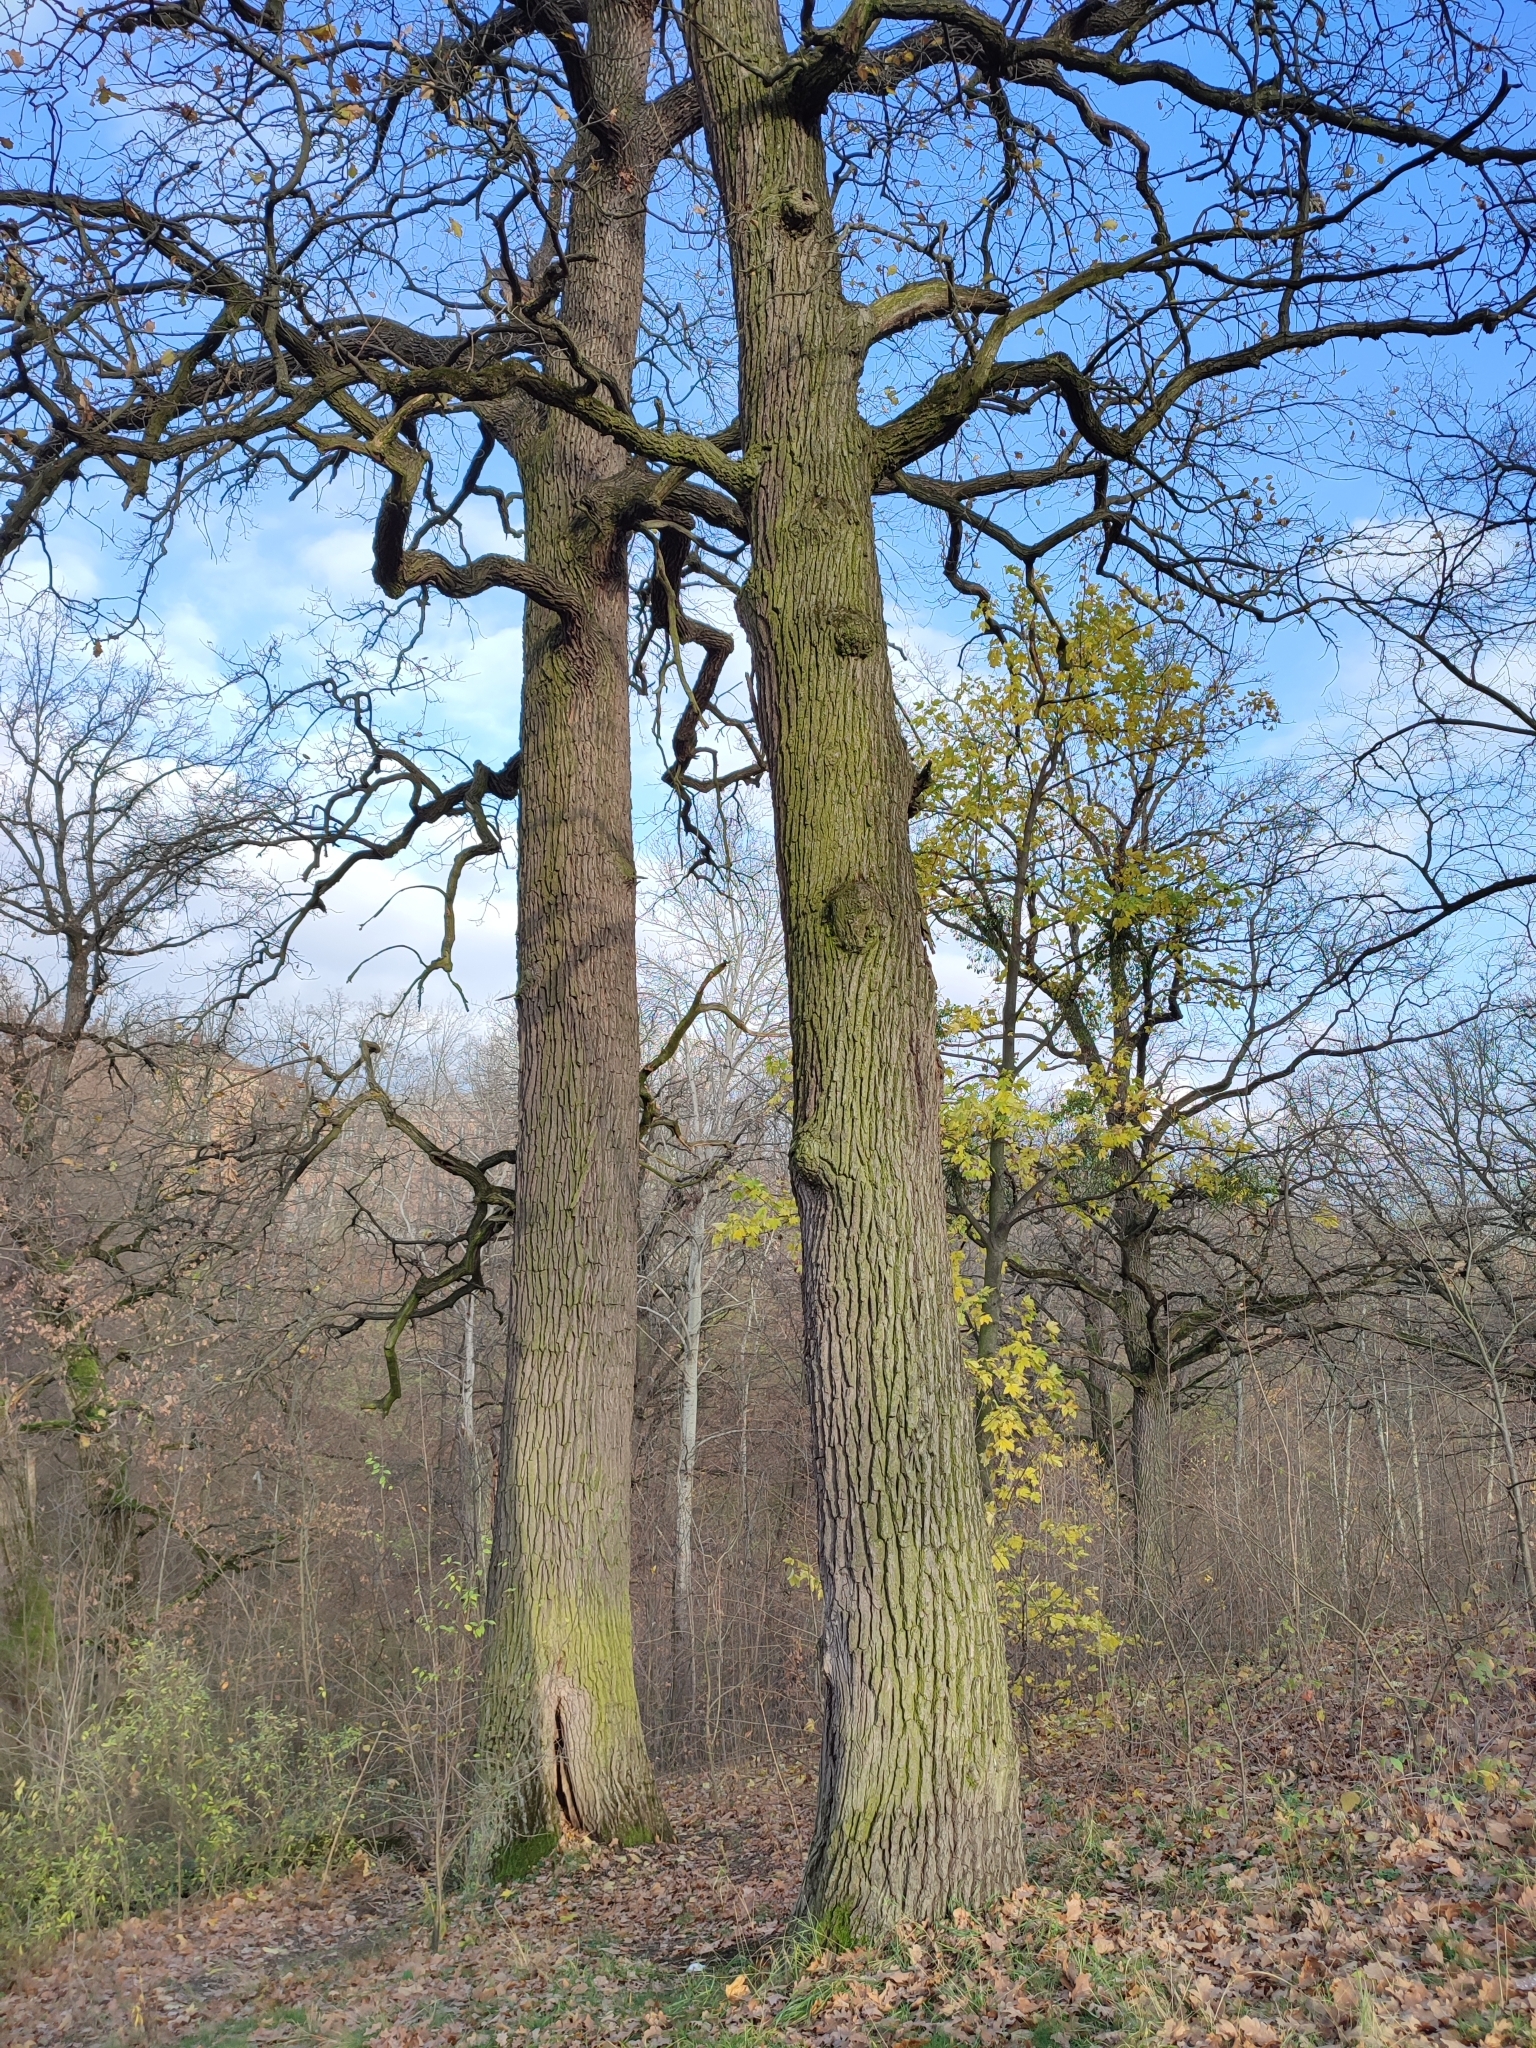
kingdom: Plantae
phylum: Tracheophyta
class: Magnoliopsida
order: Fagales
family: Fagaceae
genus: Quercus
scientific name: Quercus robur
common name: Pedunculate oak
